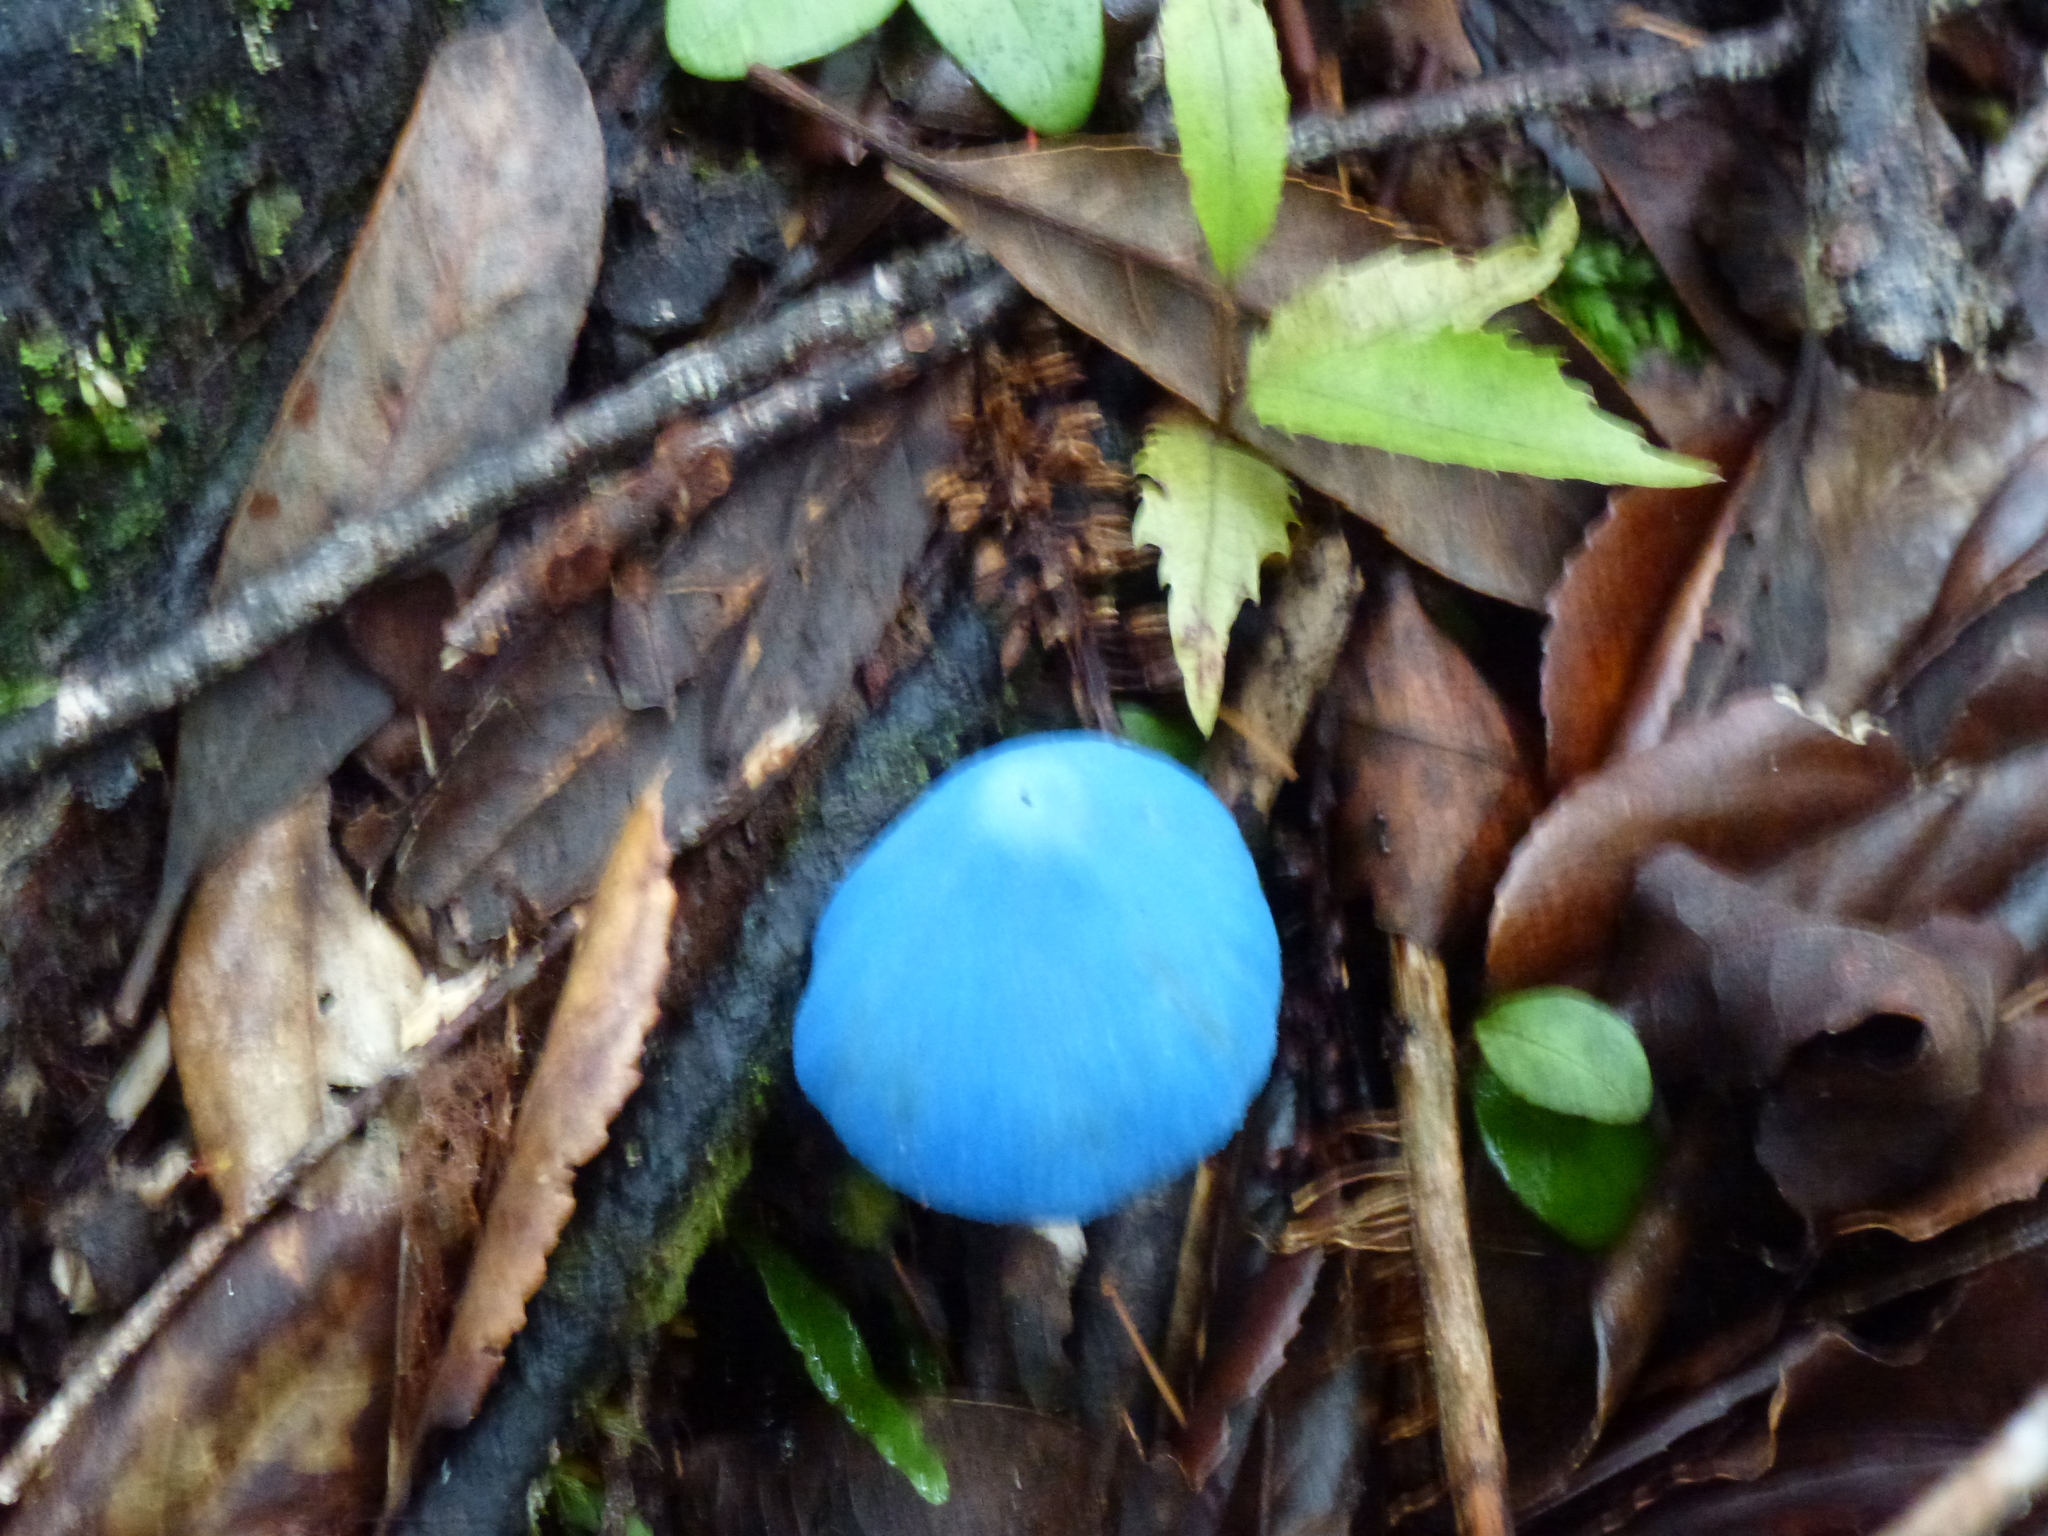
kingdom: Fungi
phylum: Basidiomycota
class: Agaricomycetes
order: Agaricales
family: Entolomataceae
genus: Entoloma
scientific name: Entoloma hochstetteri
